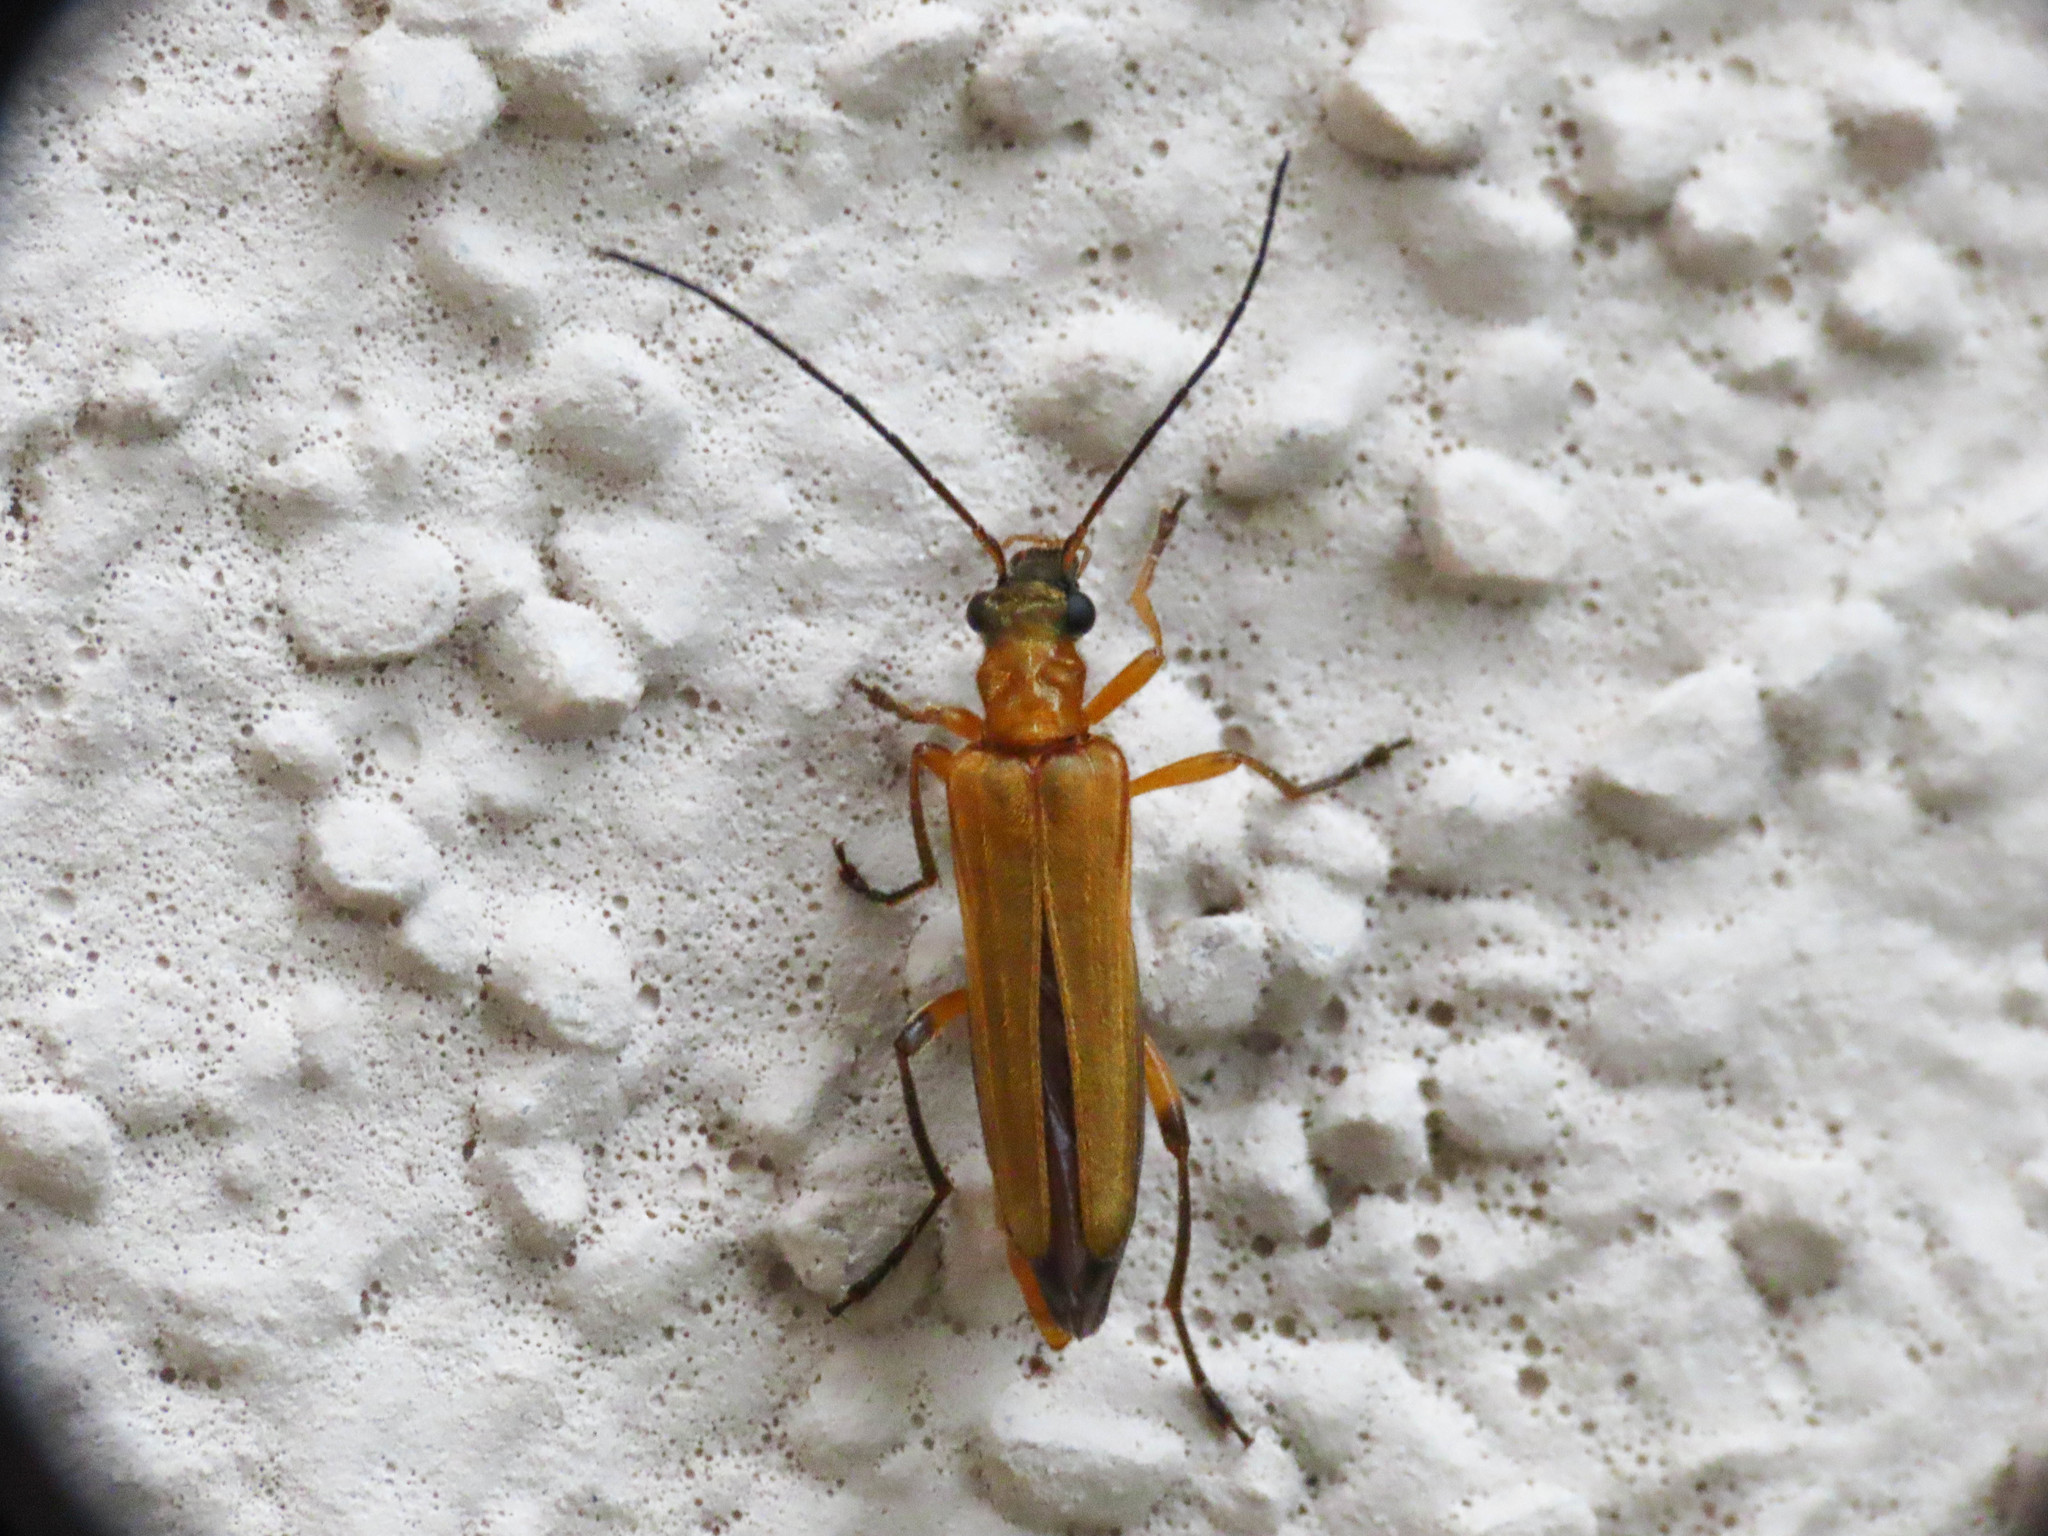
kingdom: Animalia
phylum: Arthropoda
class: Insecta
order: Coleoptera
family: Oedemeridae
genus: Oedemera
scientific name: Oedemera podagrariae
